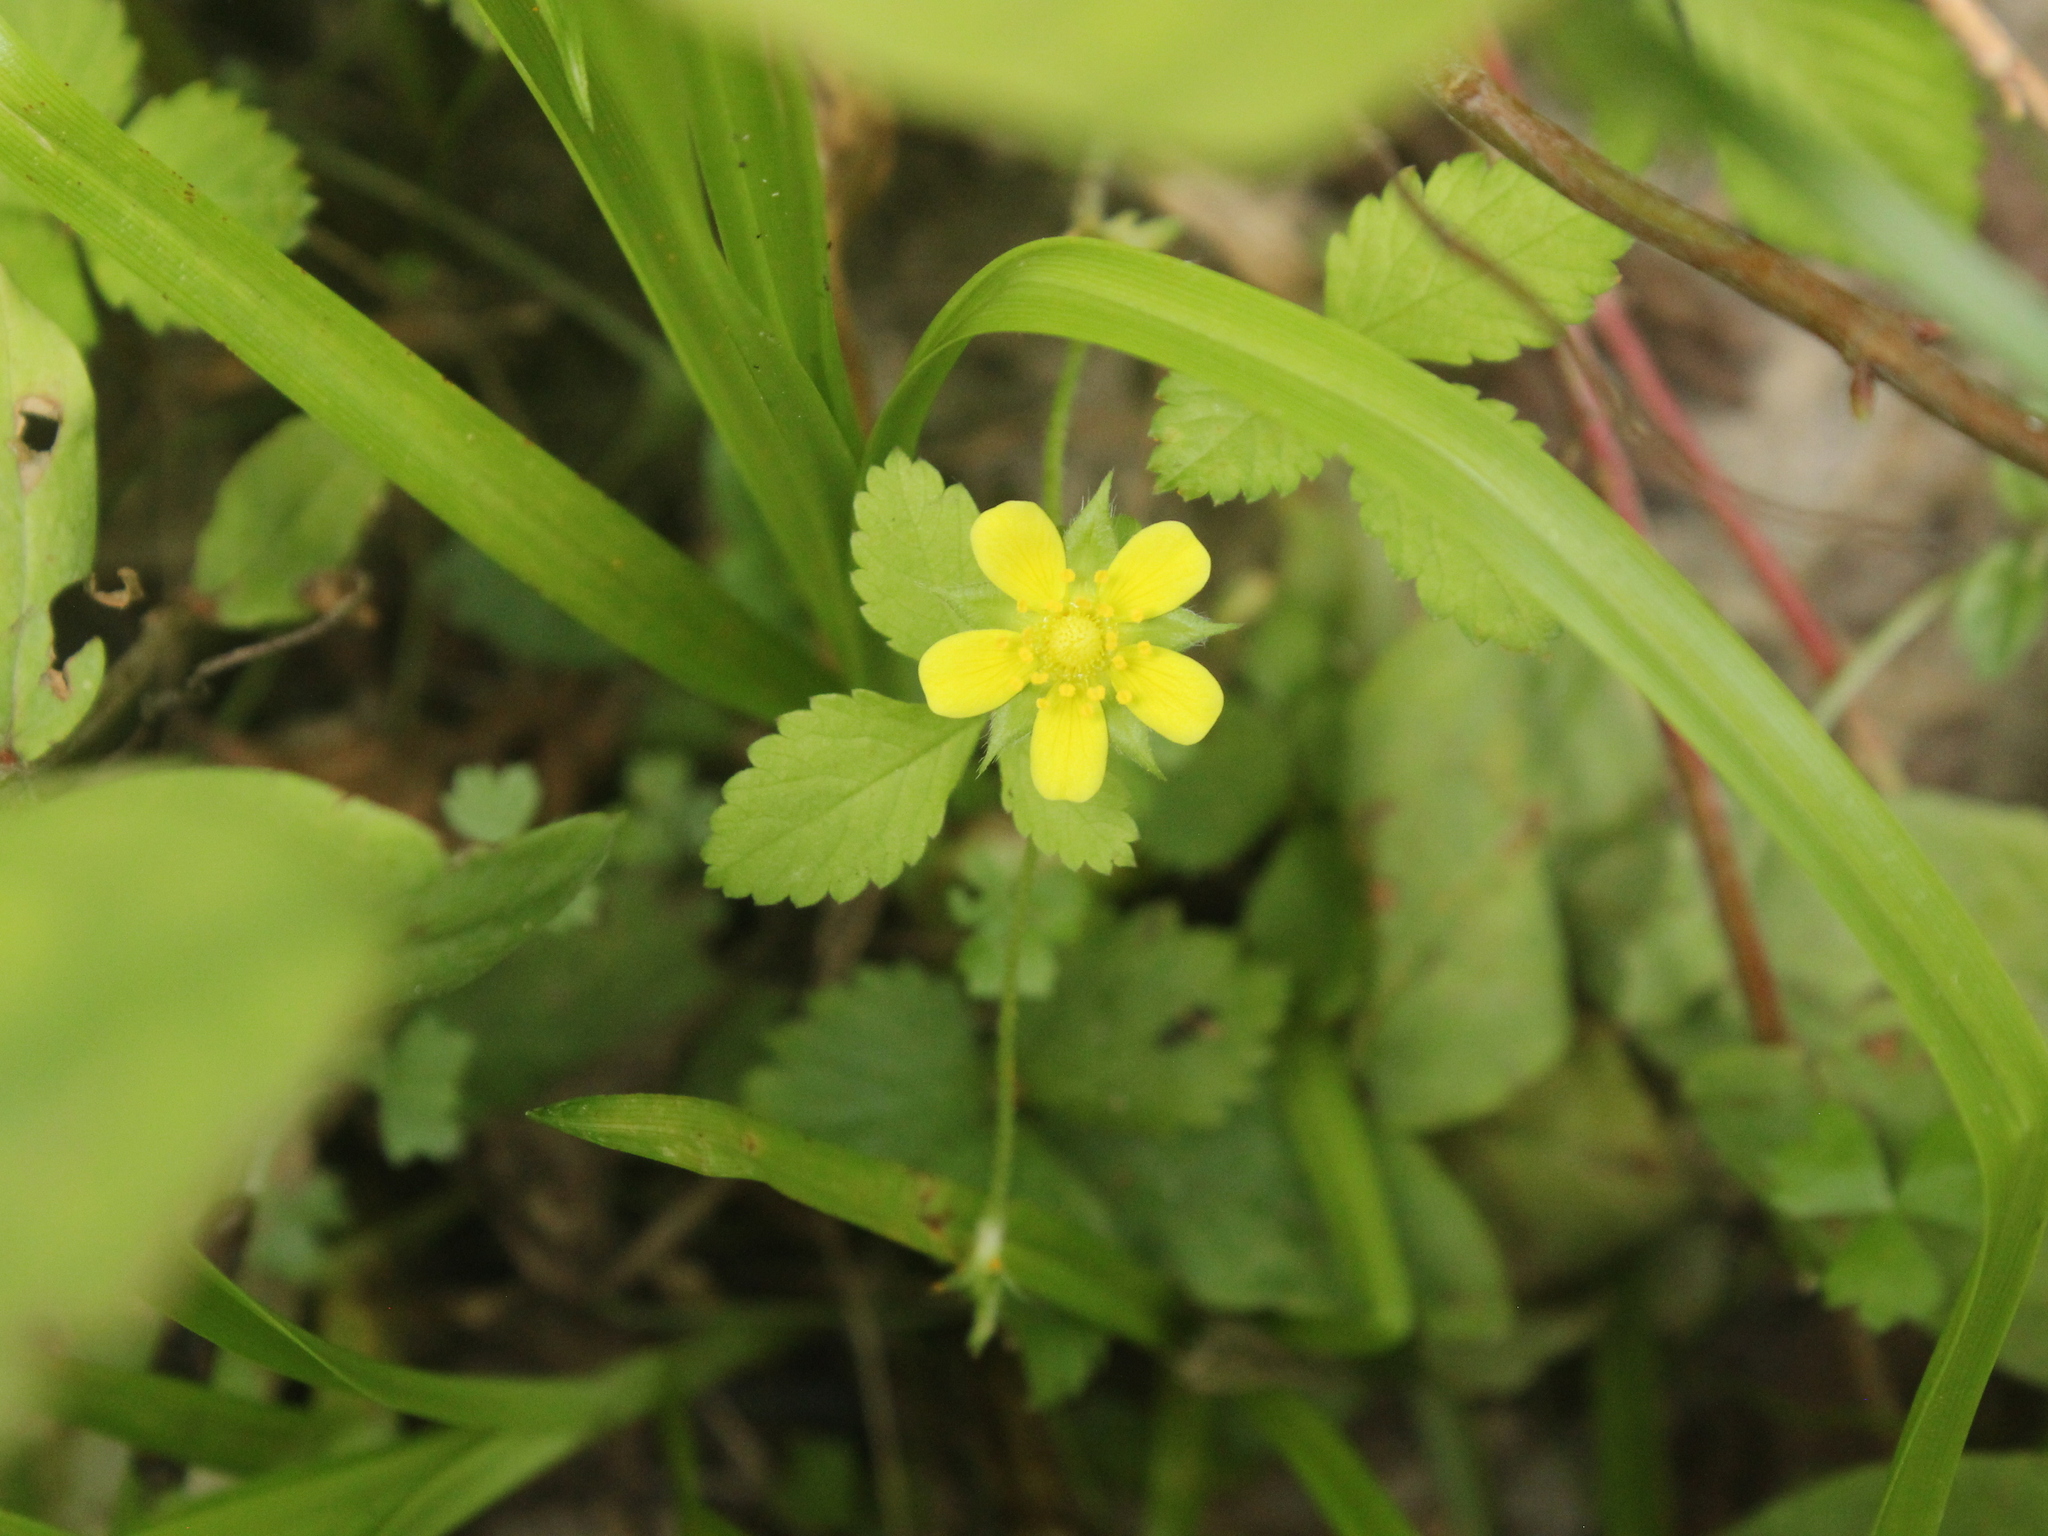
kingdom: Plantae
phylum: Tracheophyta
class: Magnoliopsida
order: Rosales
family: Rosaceae
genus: Potentilla
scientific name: Potentilla indica
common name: Yellow-flowered strawberry
